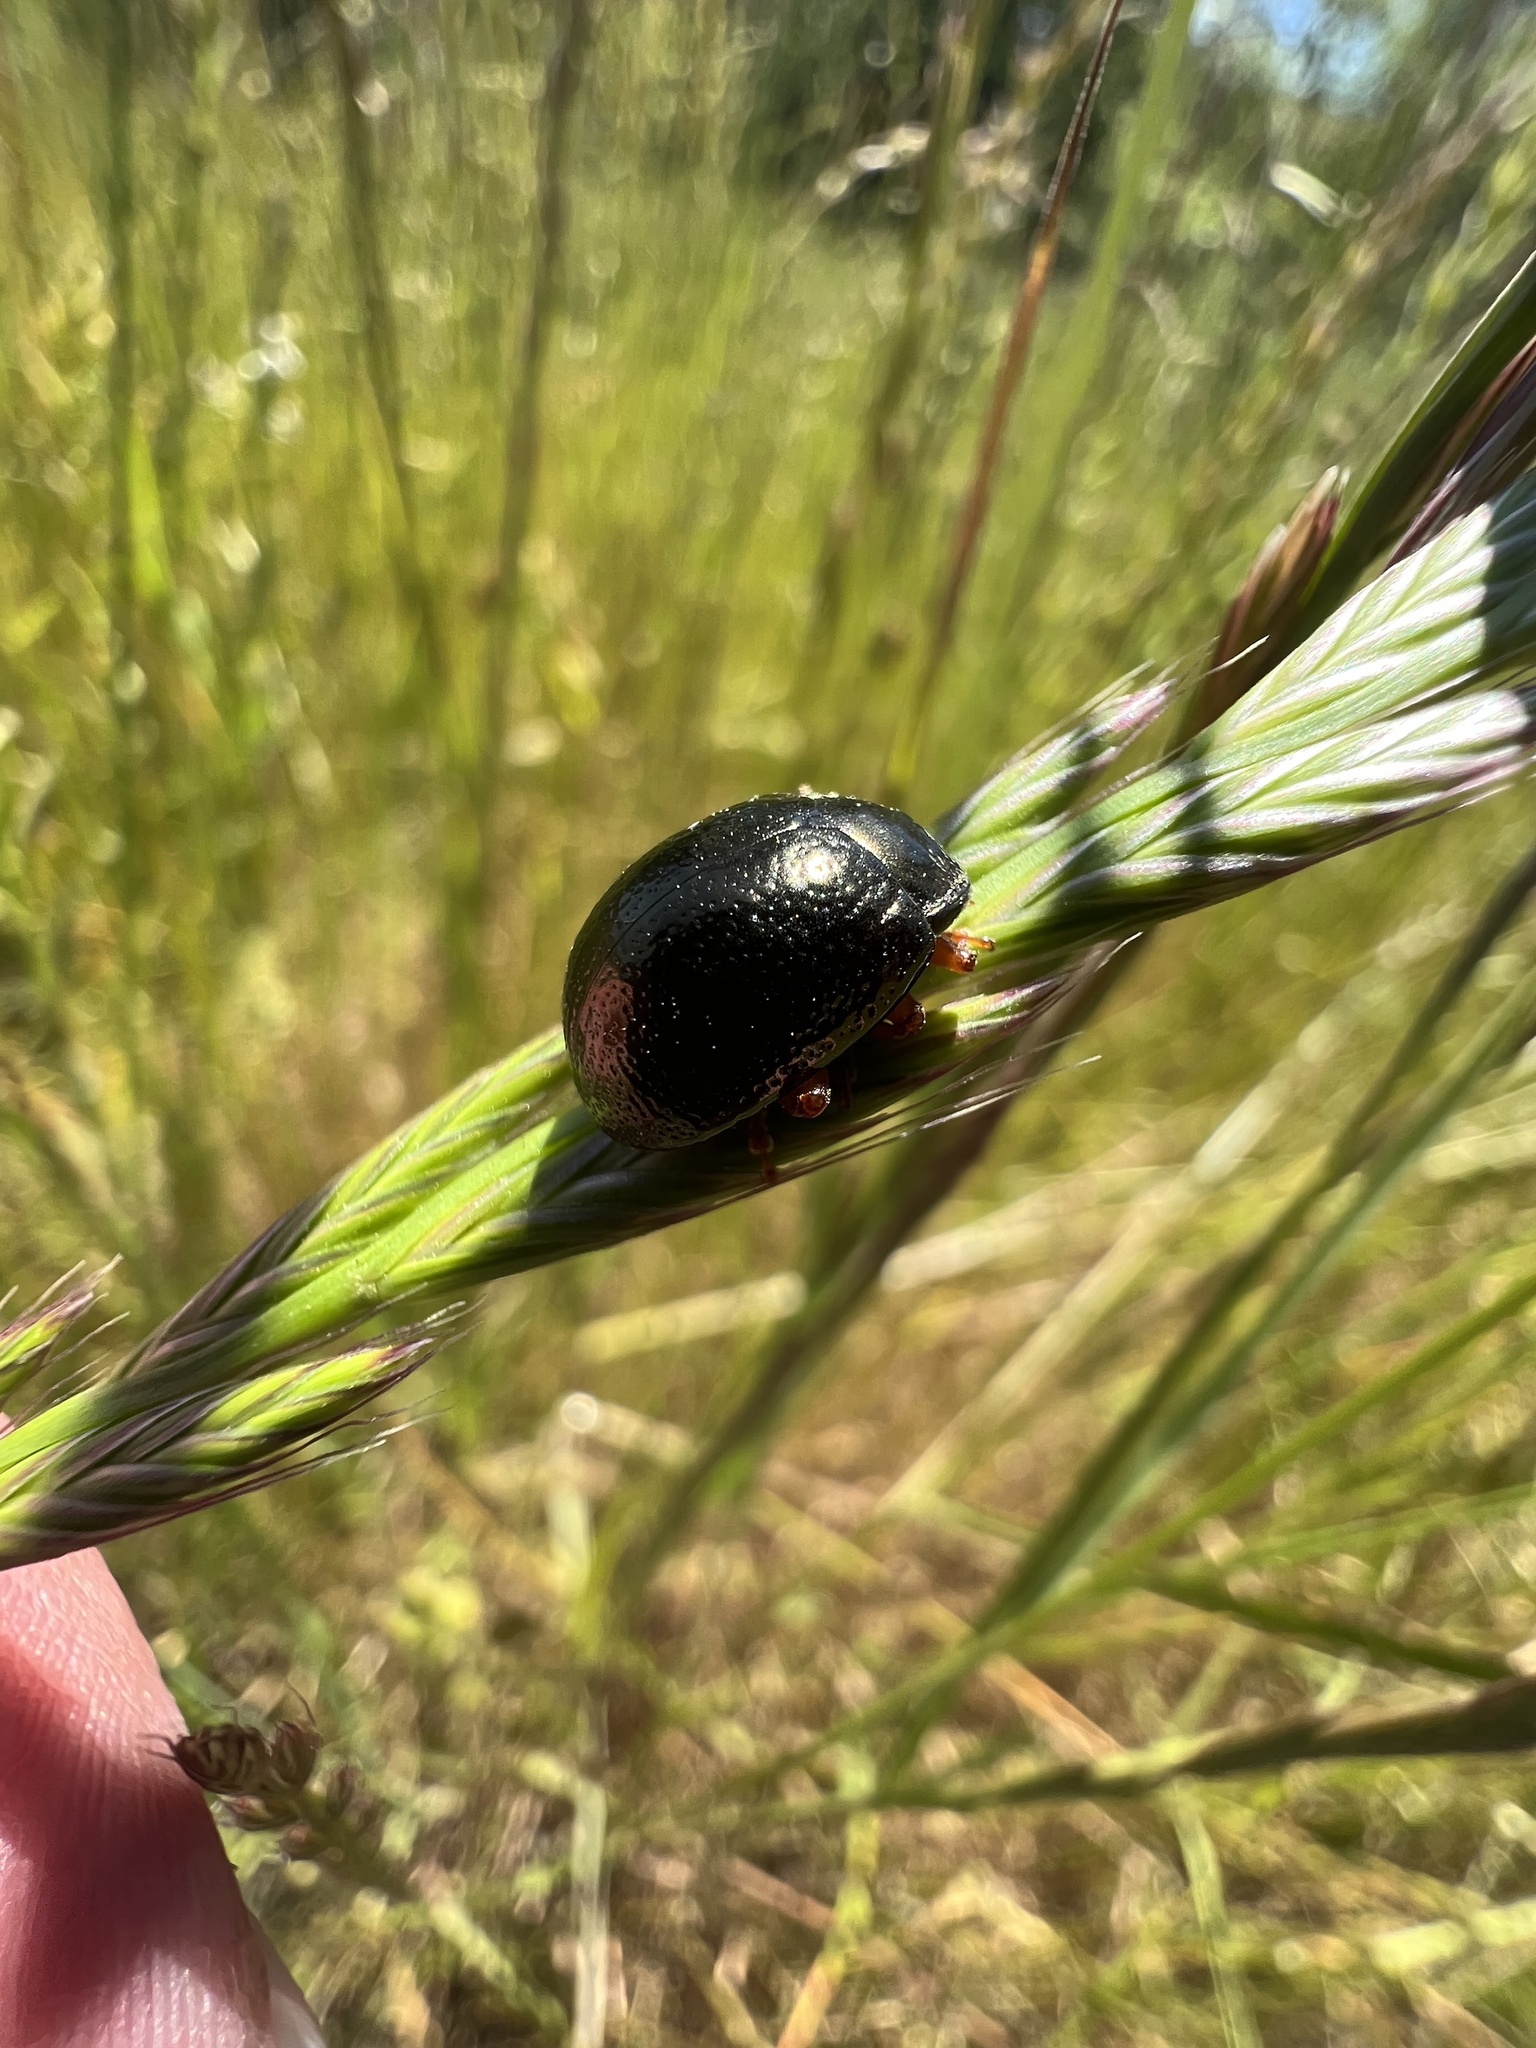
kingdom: Animalia
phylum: Arthropoda
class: Insecta
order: Coleoptera
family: Chrysomelidae
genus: Chrysolina
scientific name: Chrysolina bankii
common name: Leaf beetle
